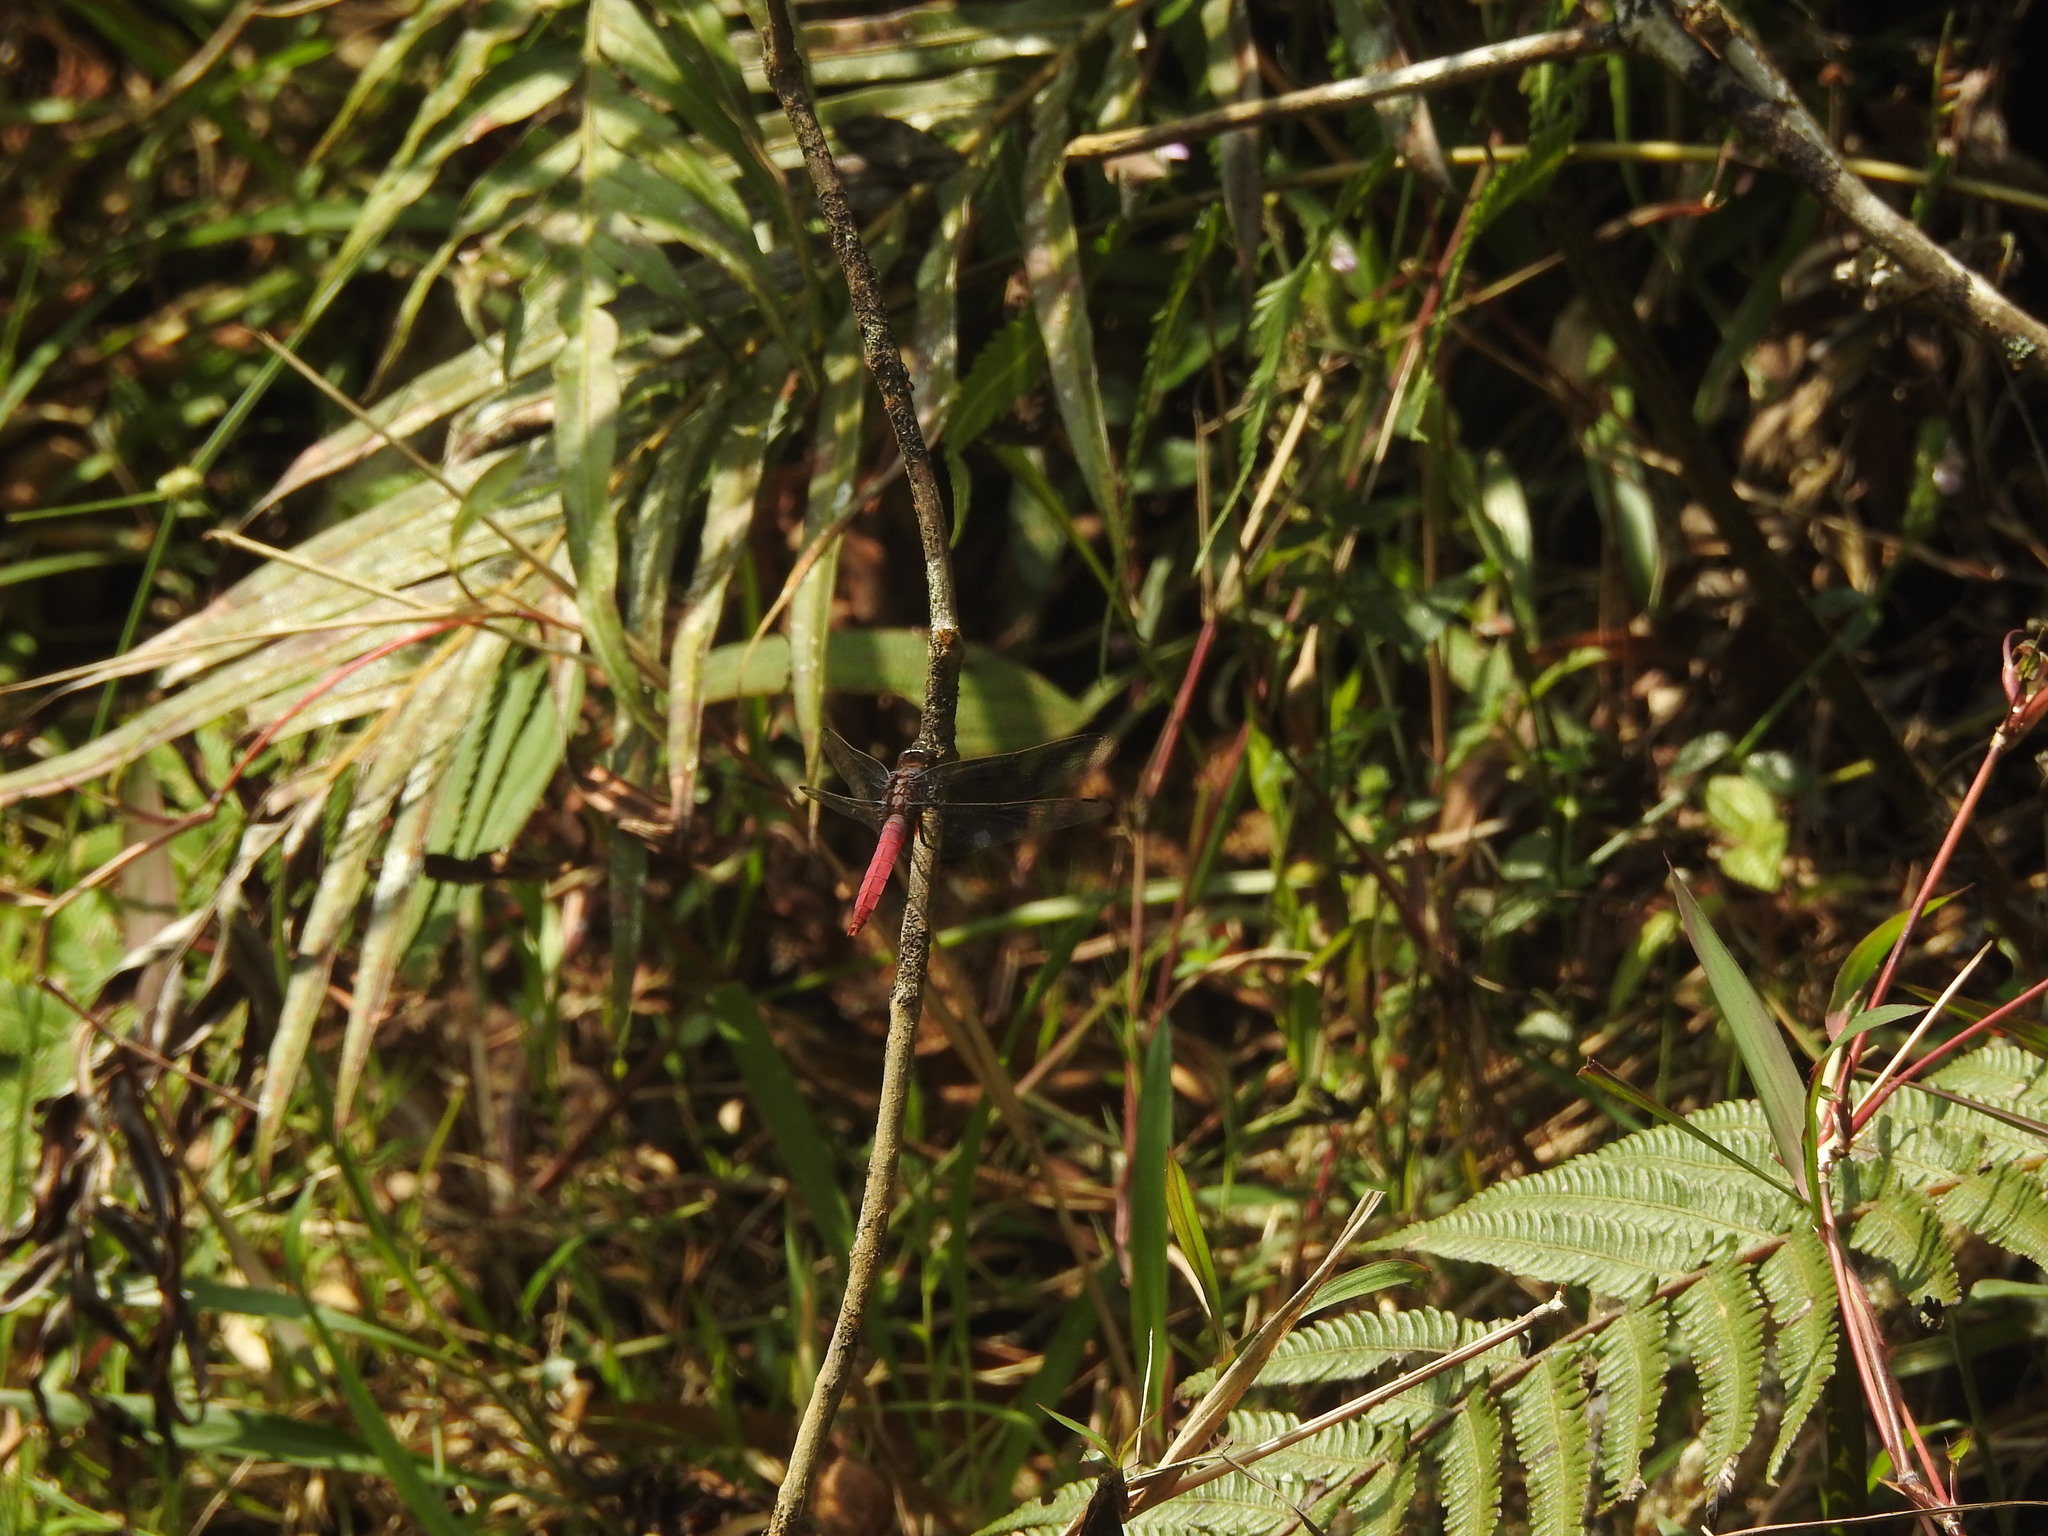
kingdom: Animalia
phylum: Arthropoda
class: Insecta
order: Odonata
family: Libellulidae
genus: Orthetrum
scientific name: Orthetrum pruinosum
